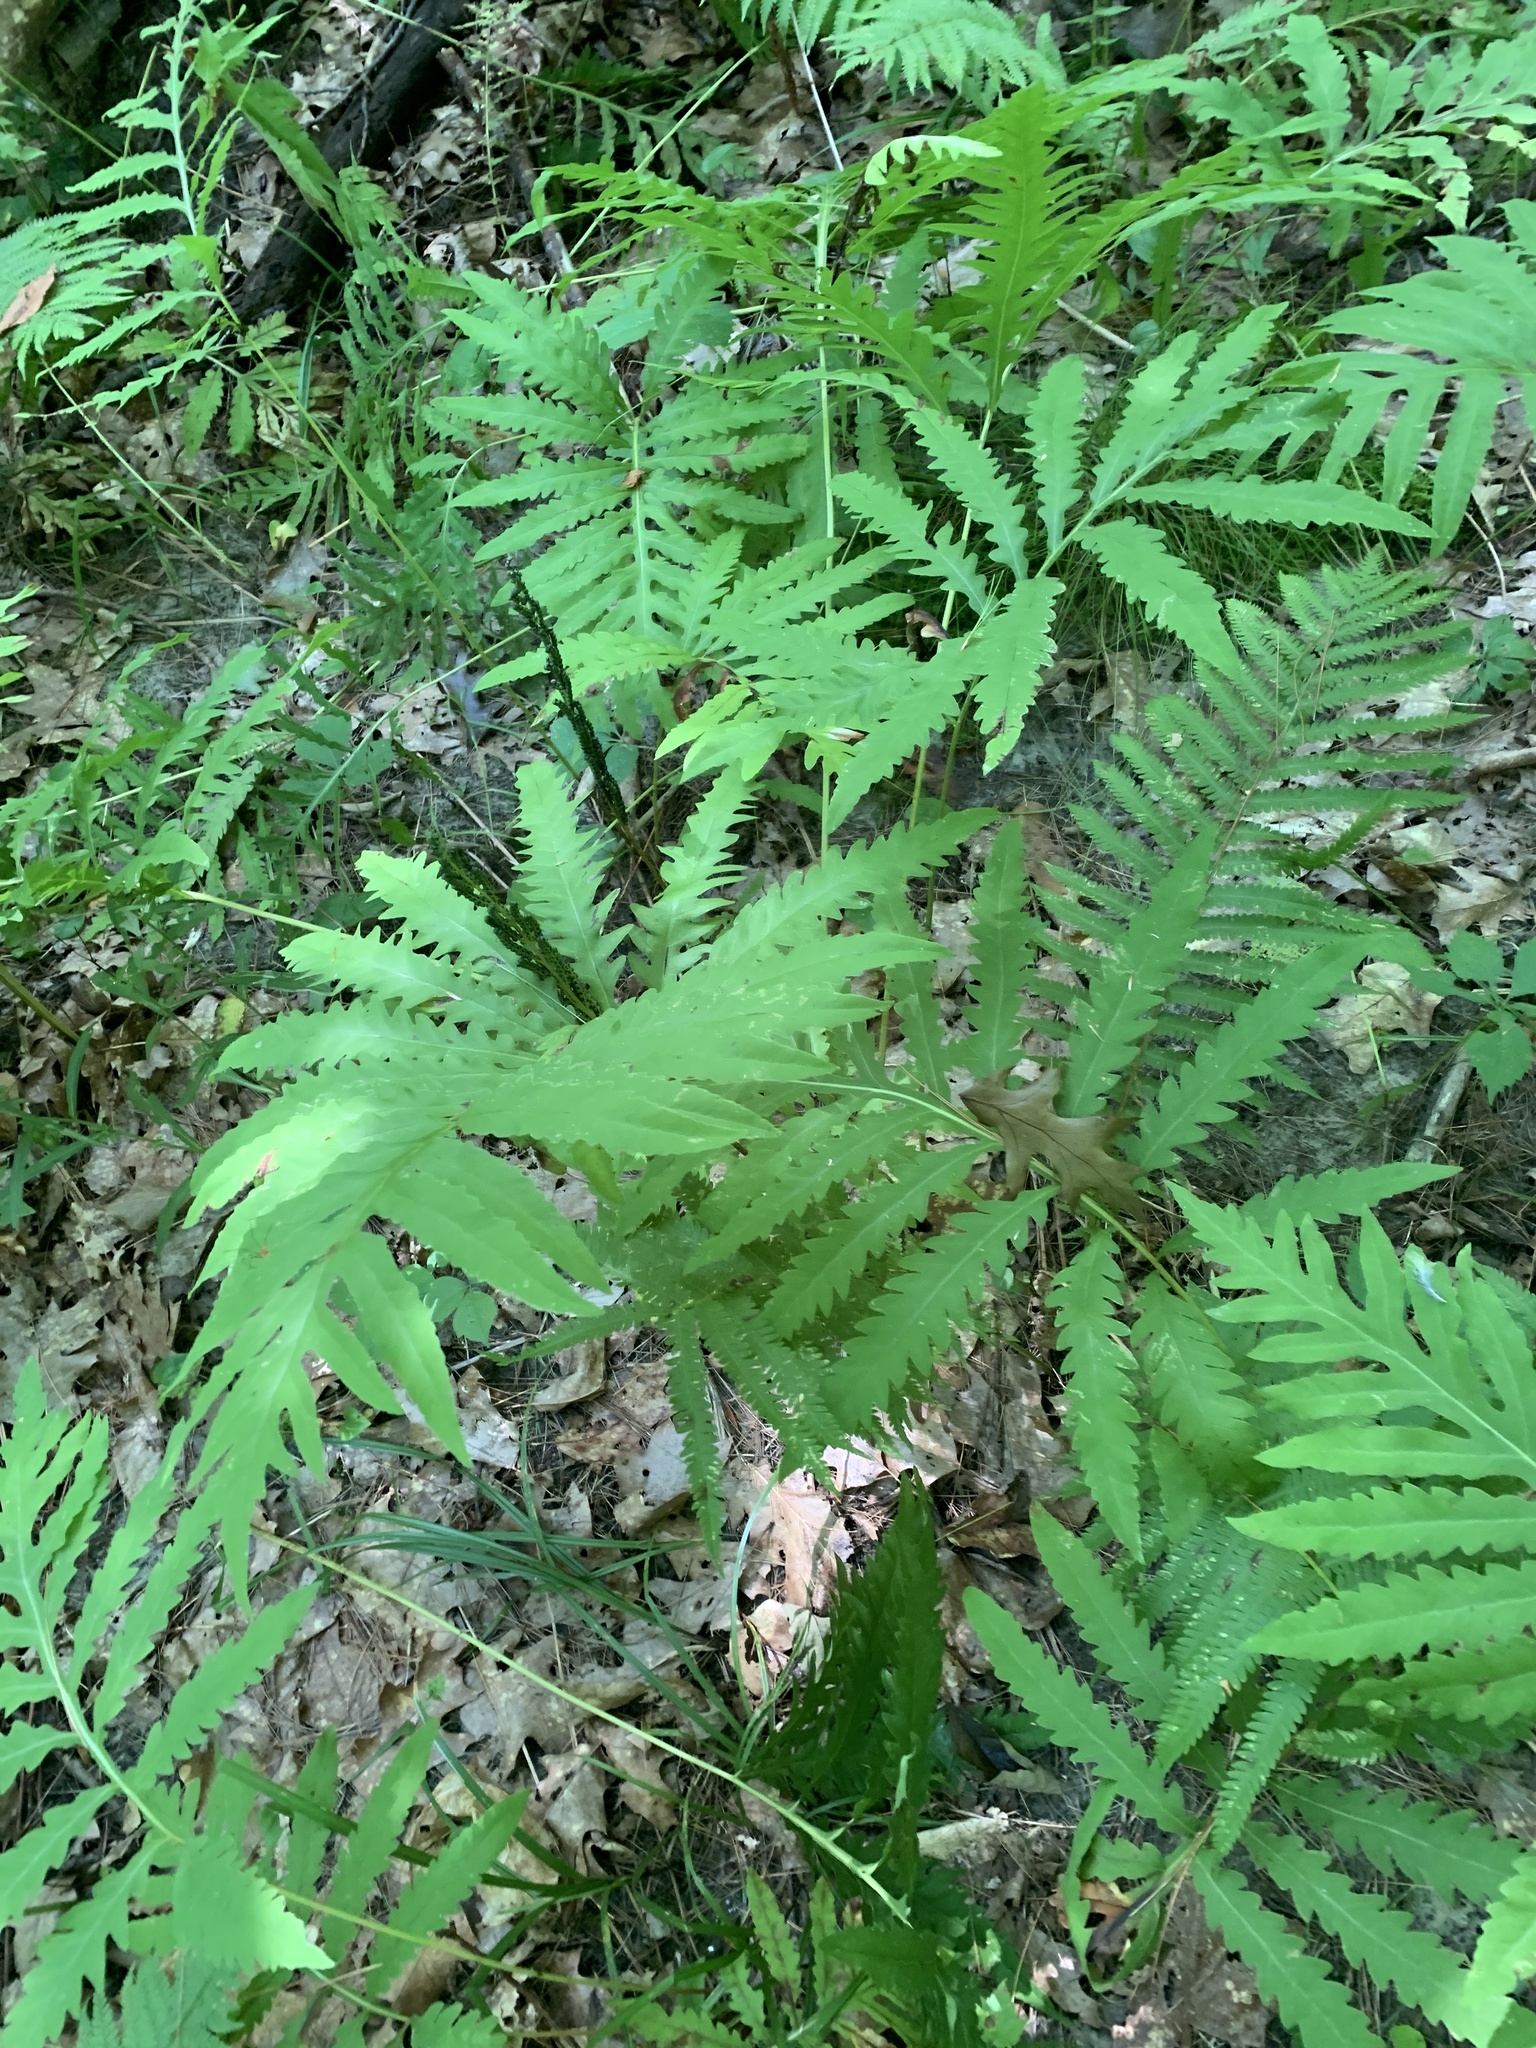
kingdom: Plantae
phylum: Tracheophyta
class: Polypodiopsida
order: Polypodiales
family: Onocleaceae
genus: Onoclea
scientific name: Onoclea sensibilis
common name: Sensitive fern
